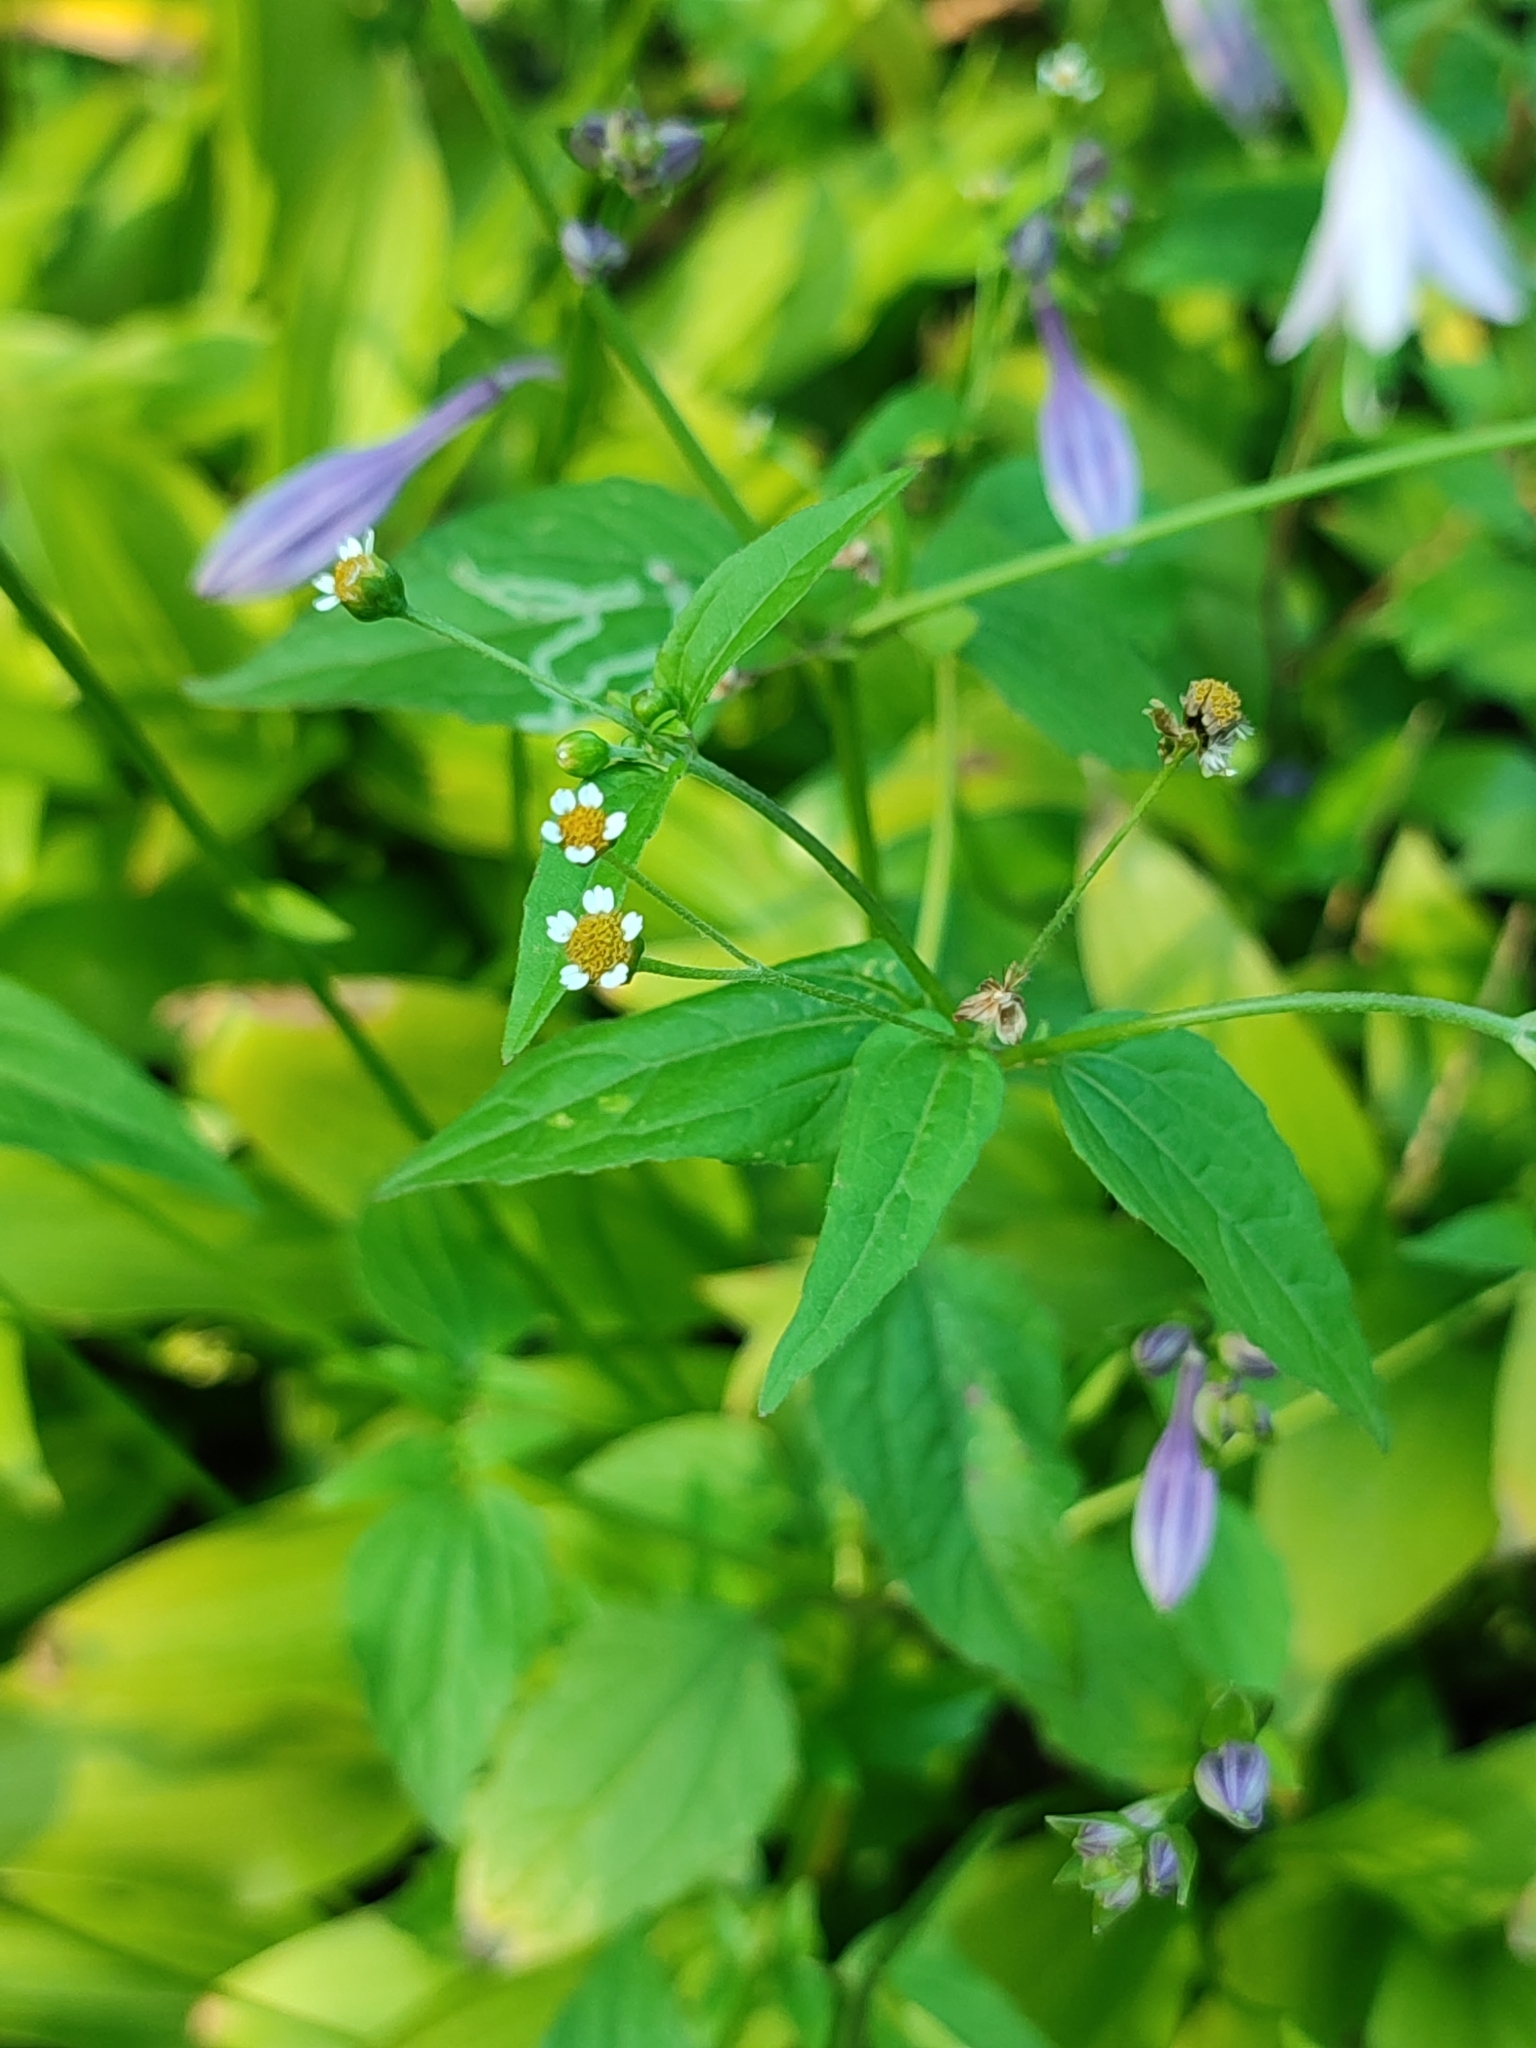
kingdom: Plantae
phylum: Tracheophyta
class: Magnoliopsida
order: Asterales
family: Asteraceae
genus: Galinsoga
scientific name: Galinsoga parviflora
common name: Gallant soldier
